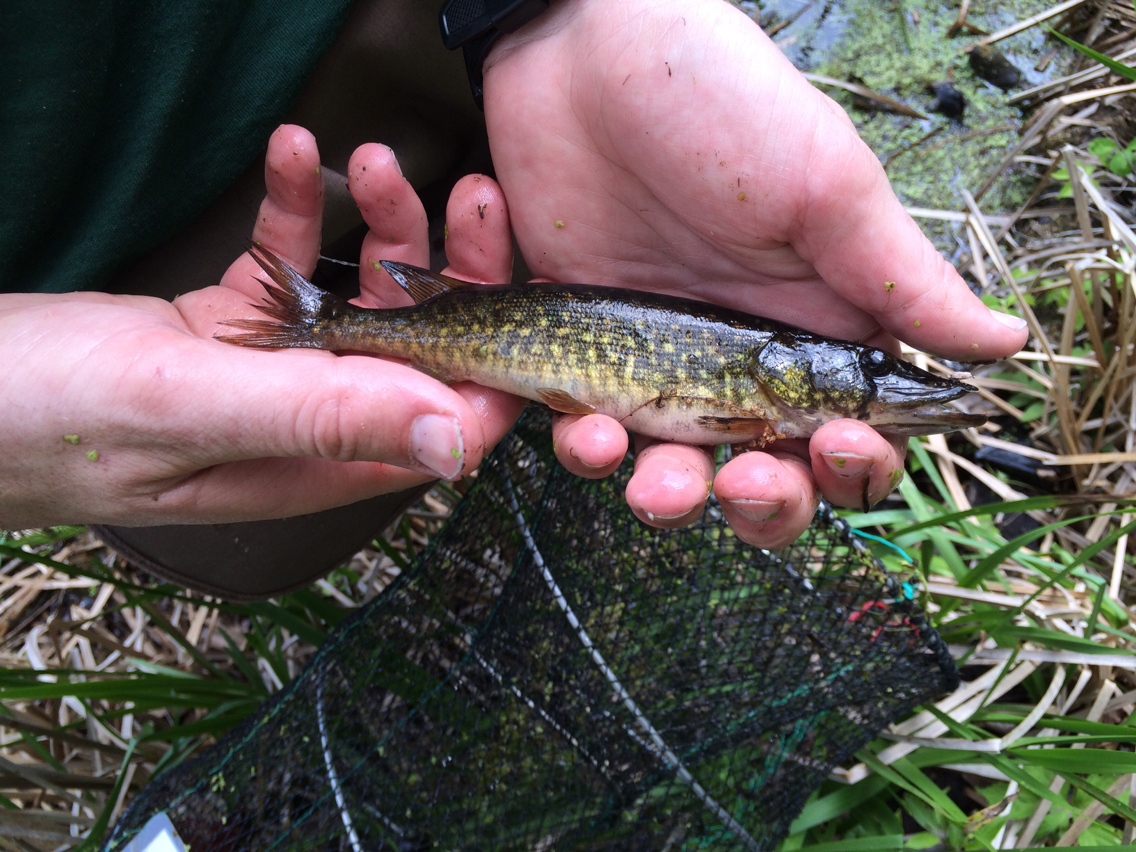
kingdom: Animalia
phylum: Chordata
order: Esociformes
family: Esocidae
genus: Esox
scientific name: Esox americanus
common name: Redfin pickerel
